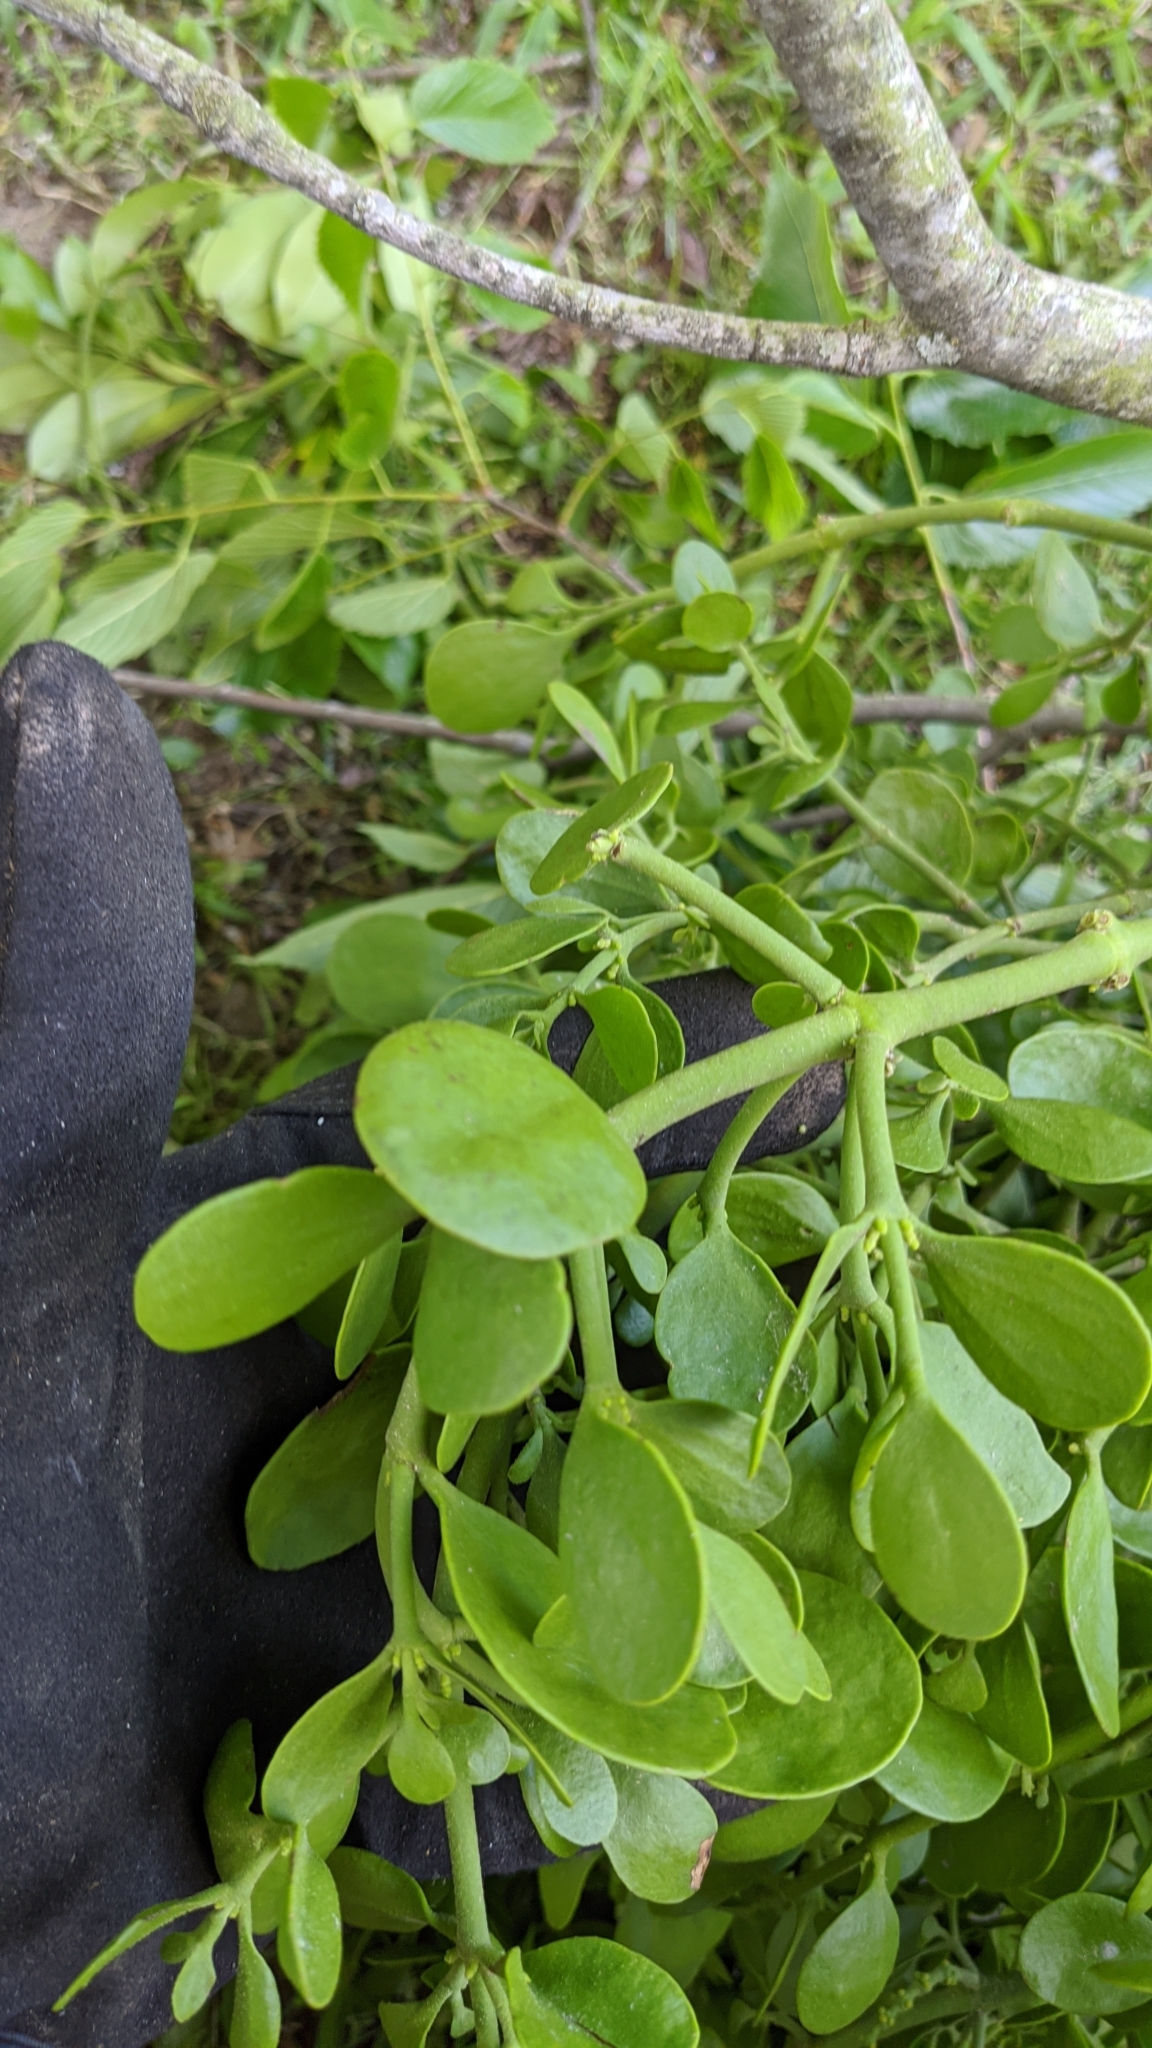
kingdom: Plantae
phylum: Tracheophyta
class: Magnoliopsida
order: Santalales
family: Viscaceae
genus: Phoradendron
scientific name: Phoradendron leucarpum
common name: Pacific mistletoe
